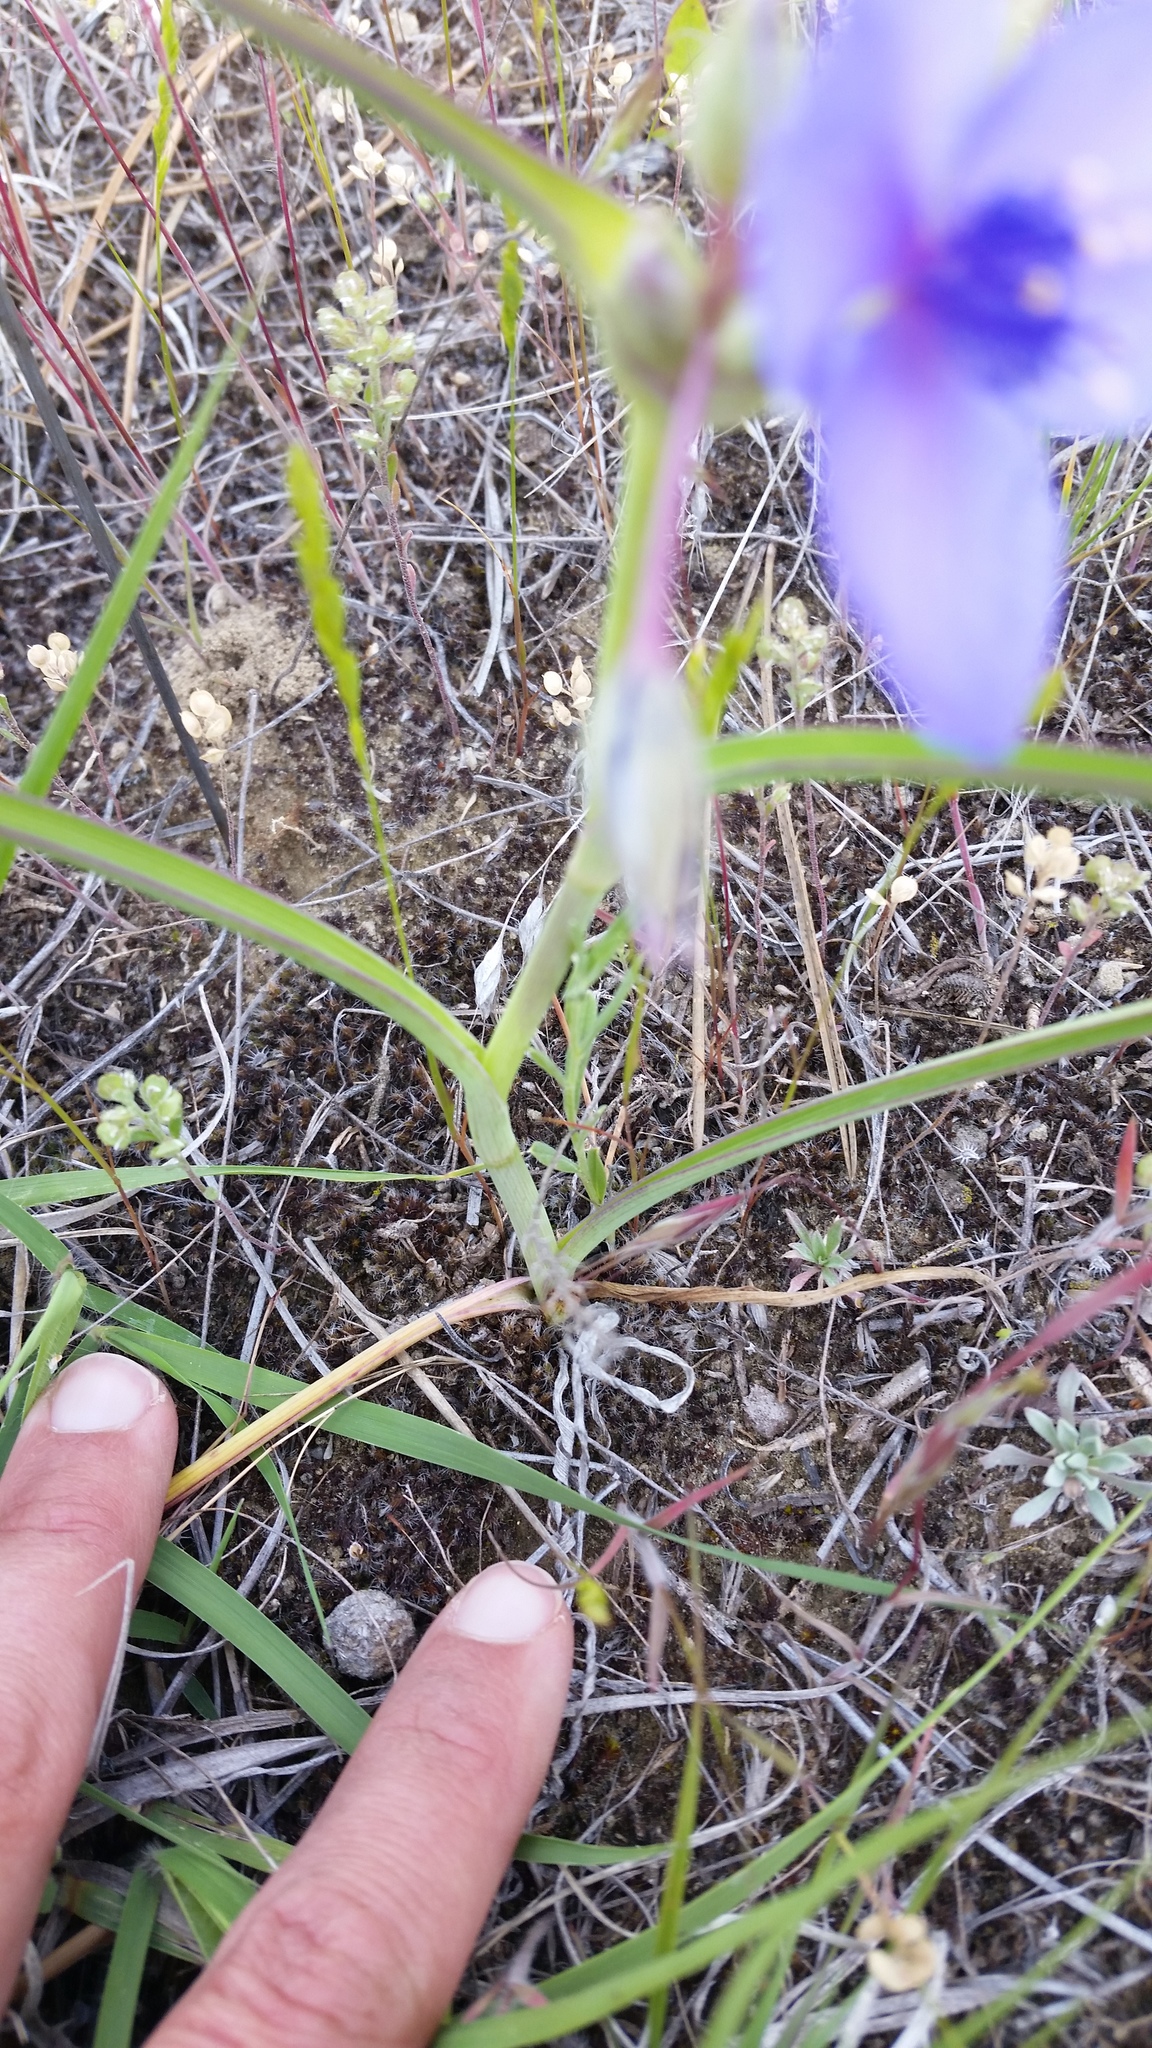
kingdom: Plantae
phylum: Tracheophyta
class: Liliopsida
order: Commelinales
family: Commelinaceae
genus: Tradescantia
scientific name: Tradescantia occidentalis
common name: Prairie spiderwort
